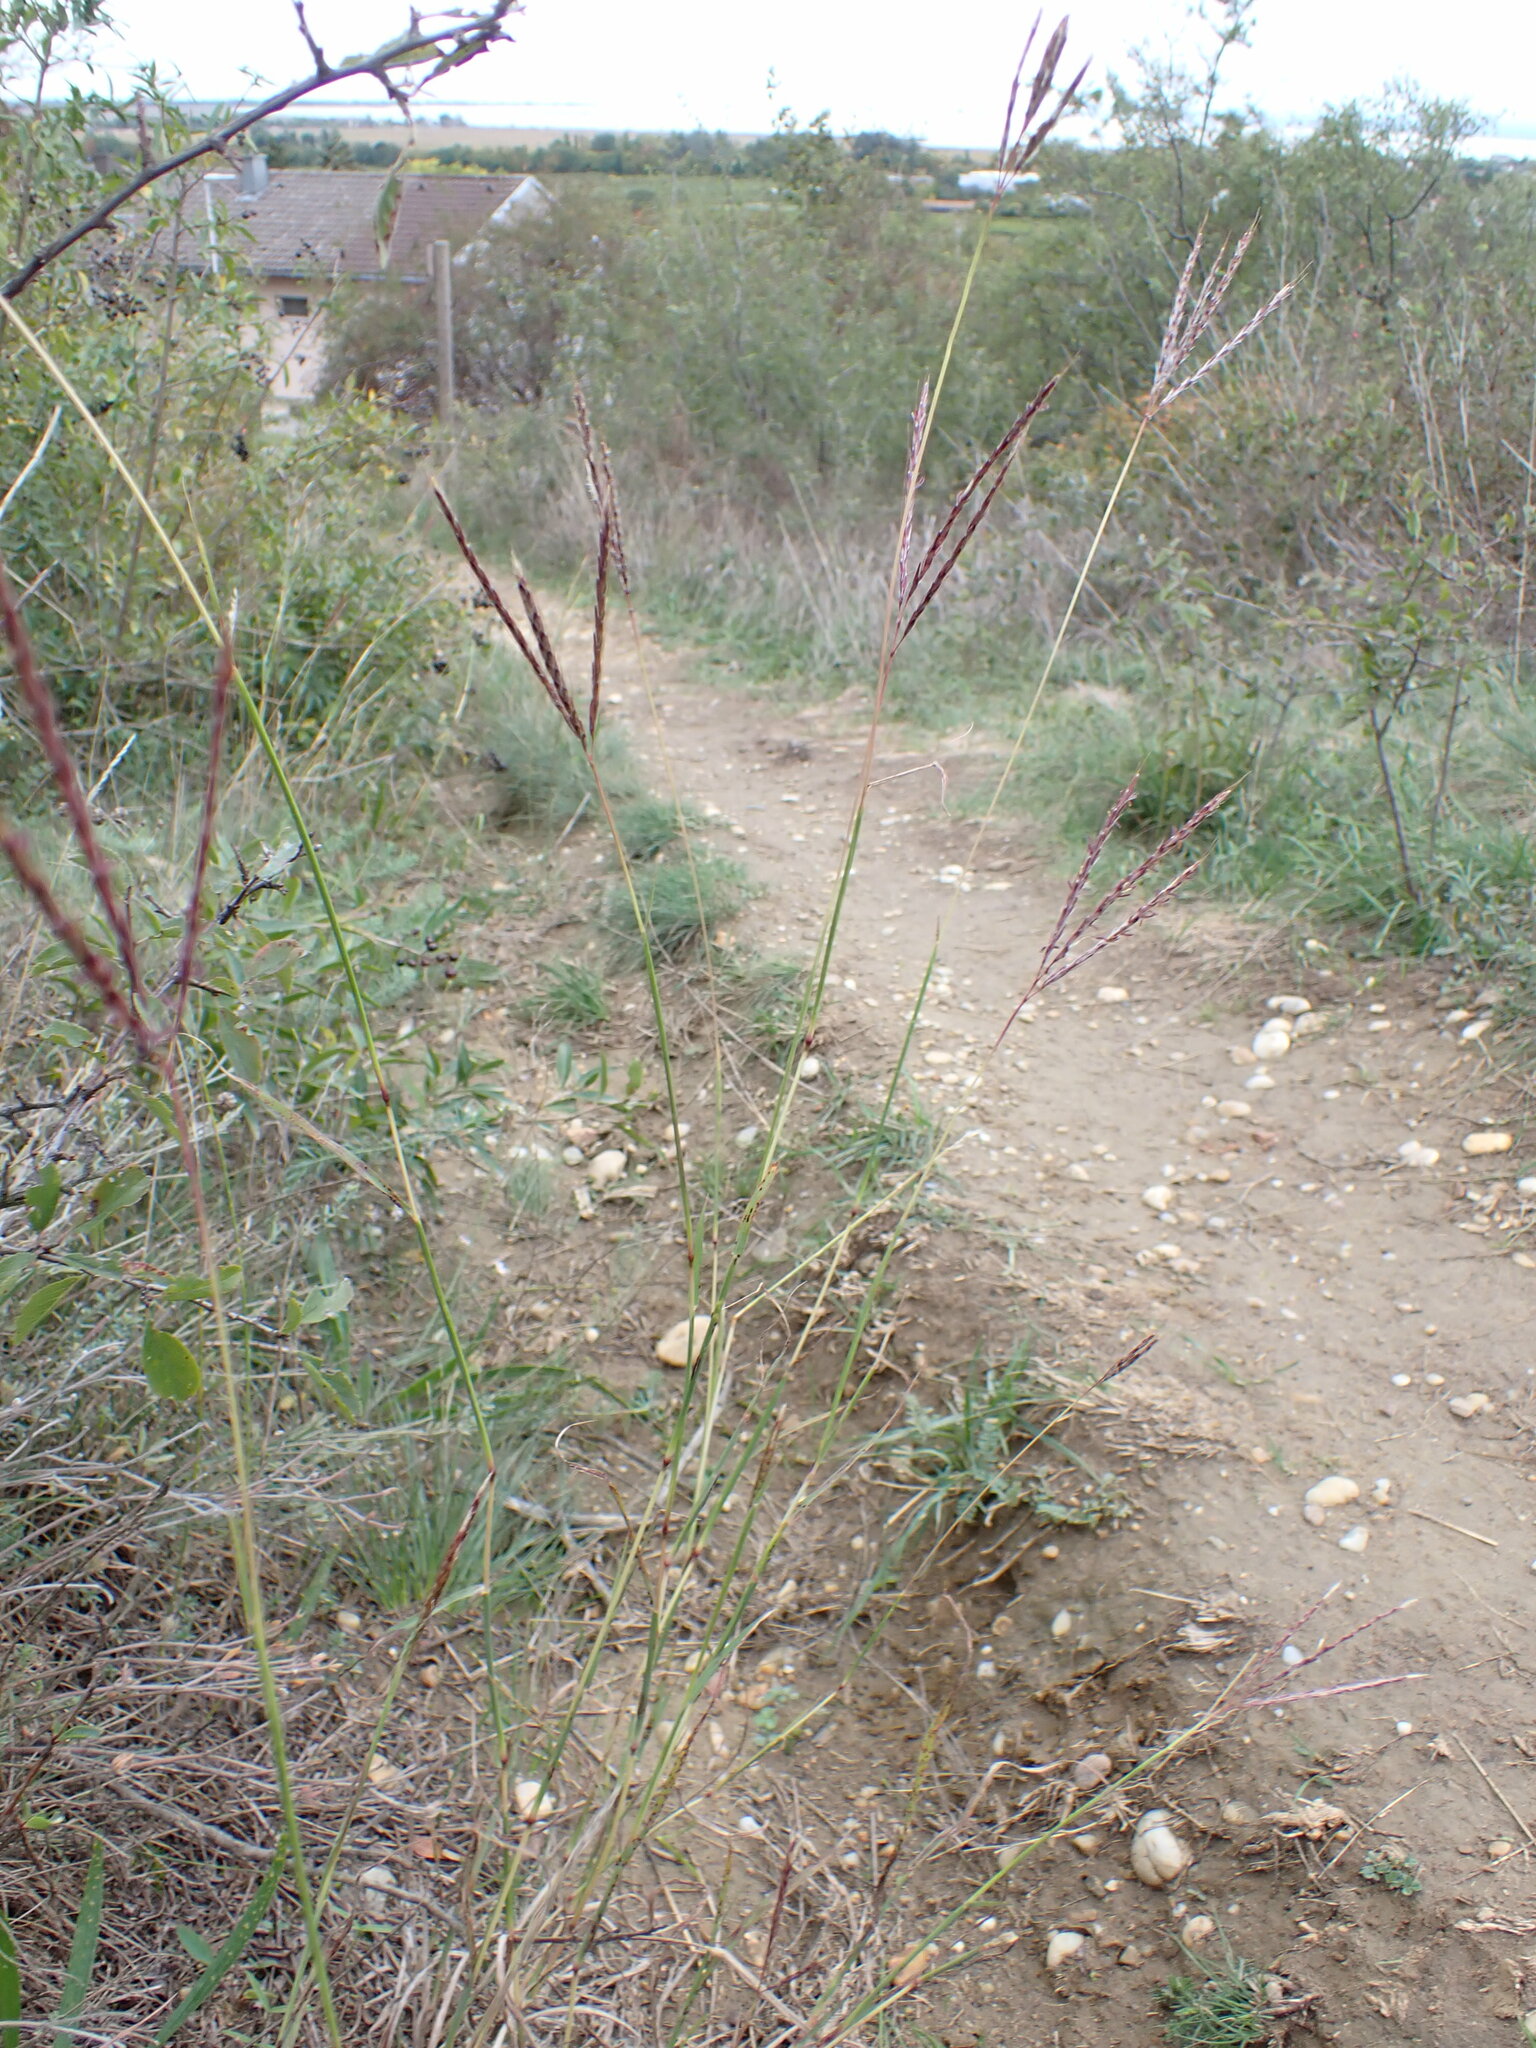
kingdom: Plantae
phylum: Tracheophyta
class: Liliopsida
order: Poales
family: Poaceae
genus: Bothriochloa
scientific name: Bothriochloa ischaemum
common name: Yellow bluestem
